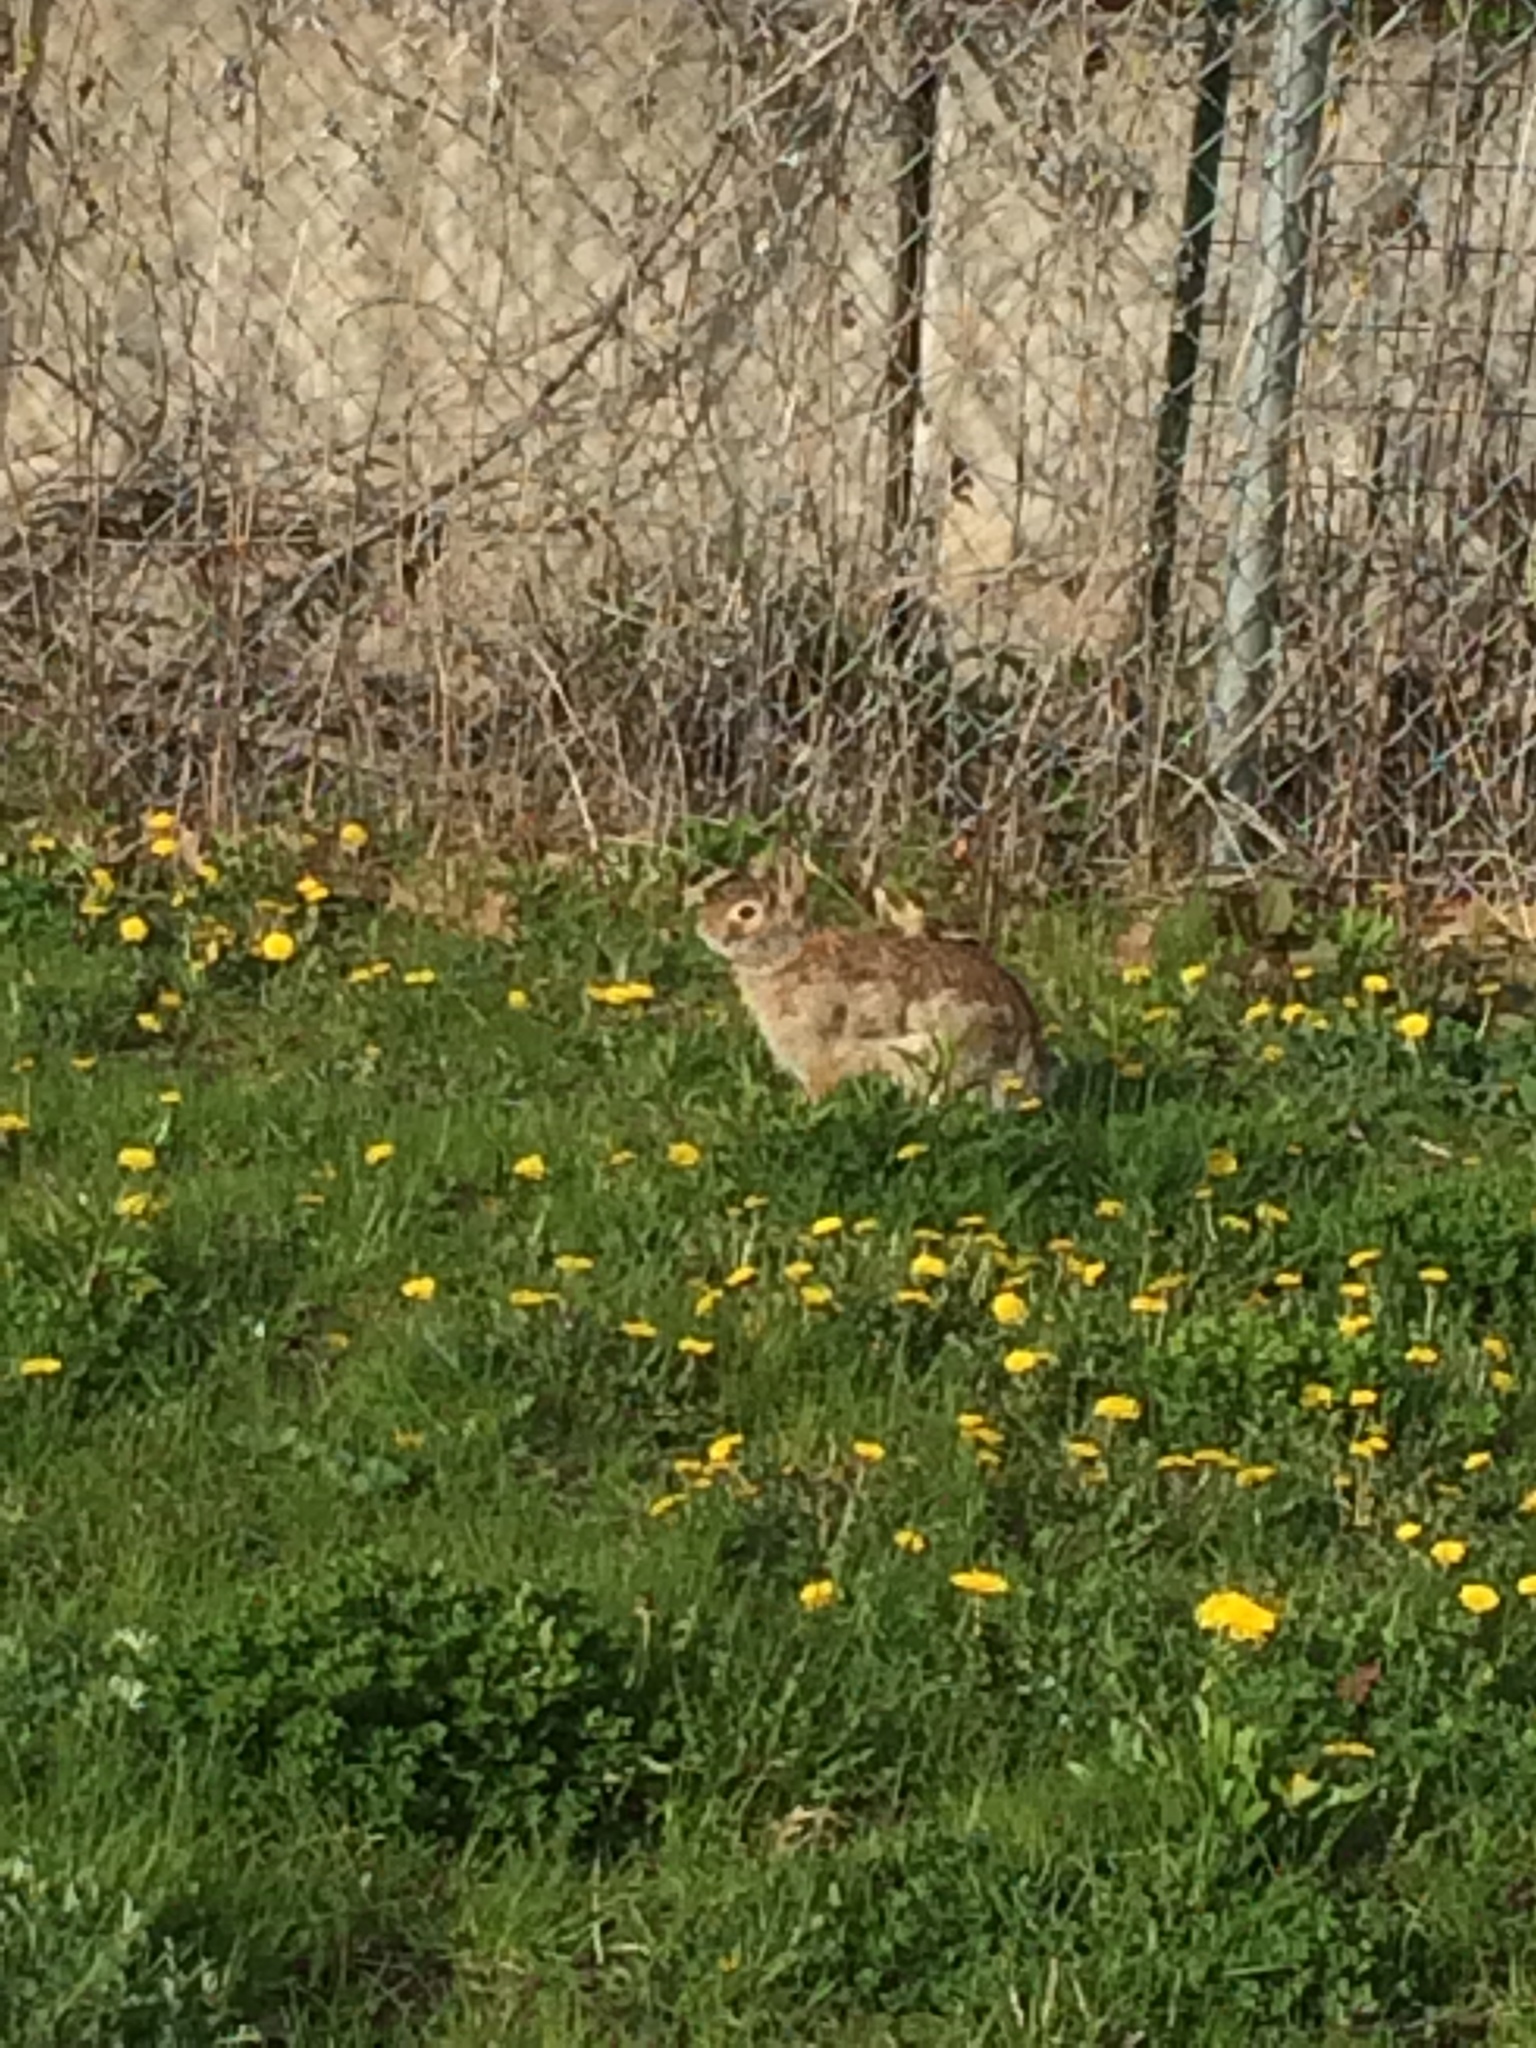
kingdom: Animalia
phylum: Chordata
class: Mammalia
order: Lagomorpha
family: Leporidae
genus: Sylvilagus
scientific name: Sylvilagus floridanus
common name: Eastern cottontail
